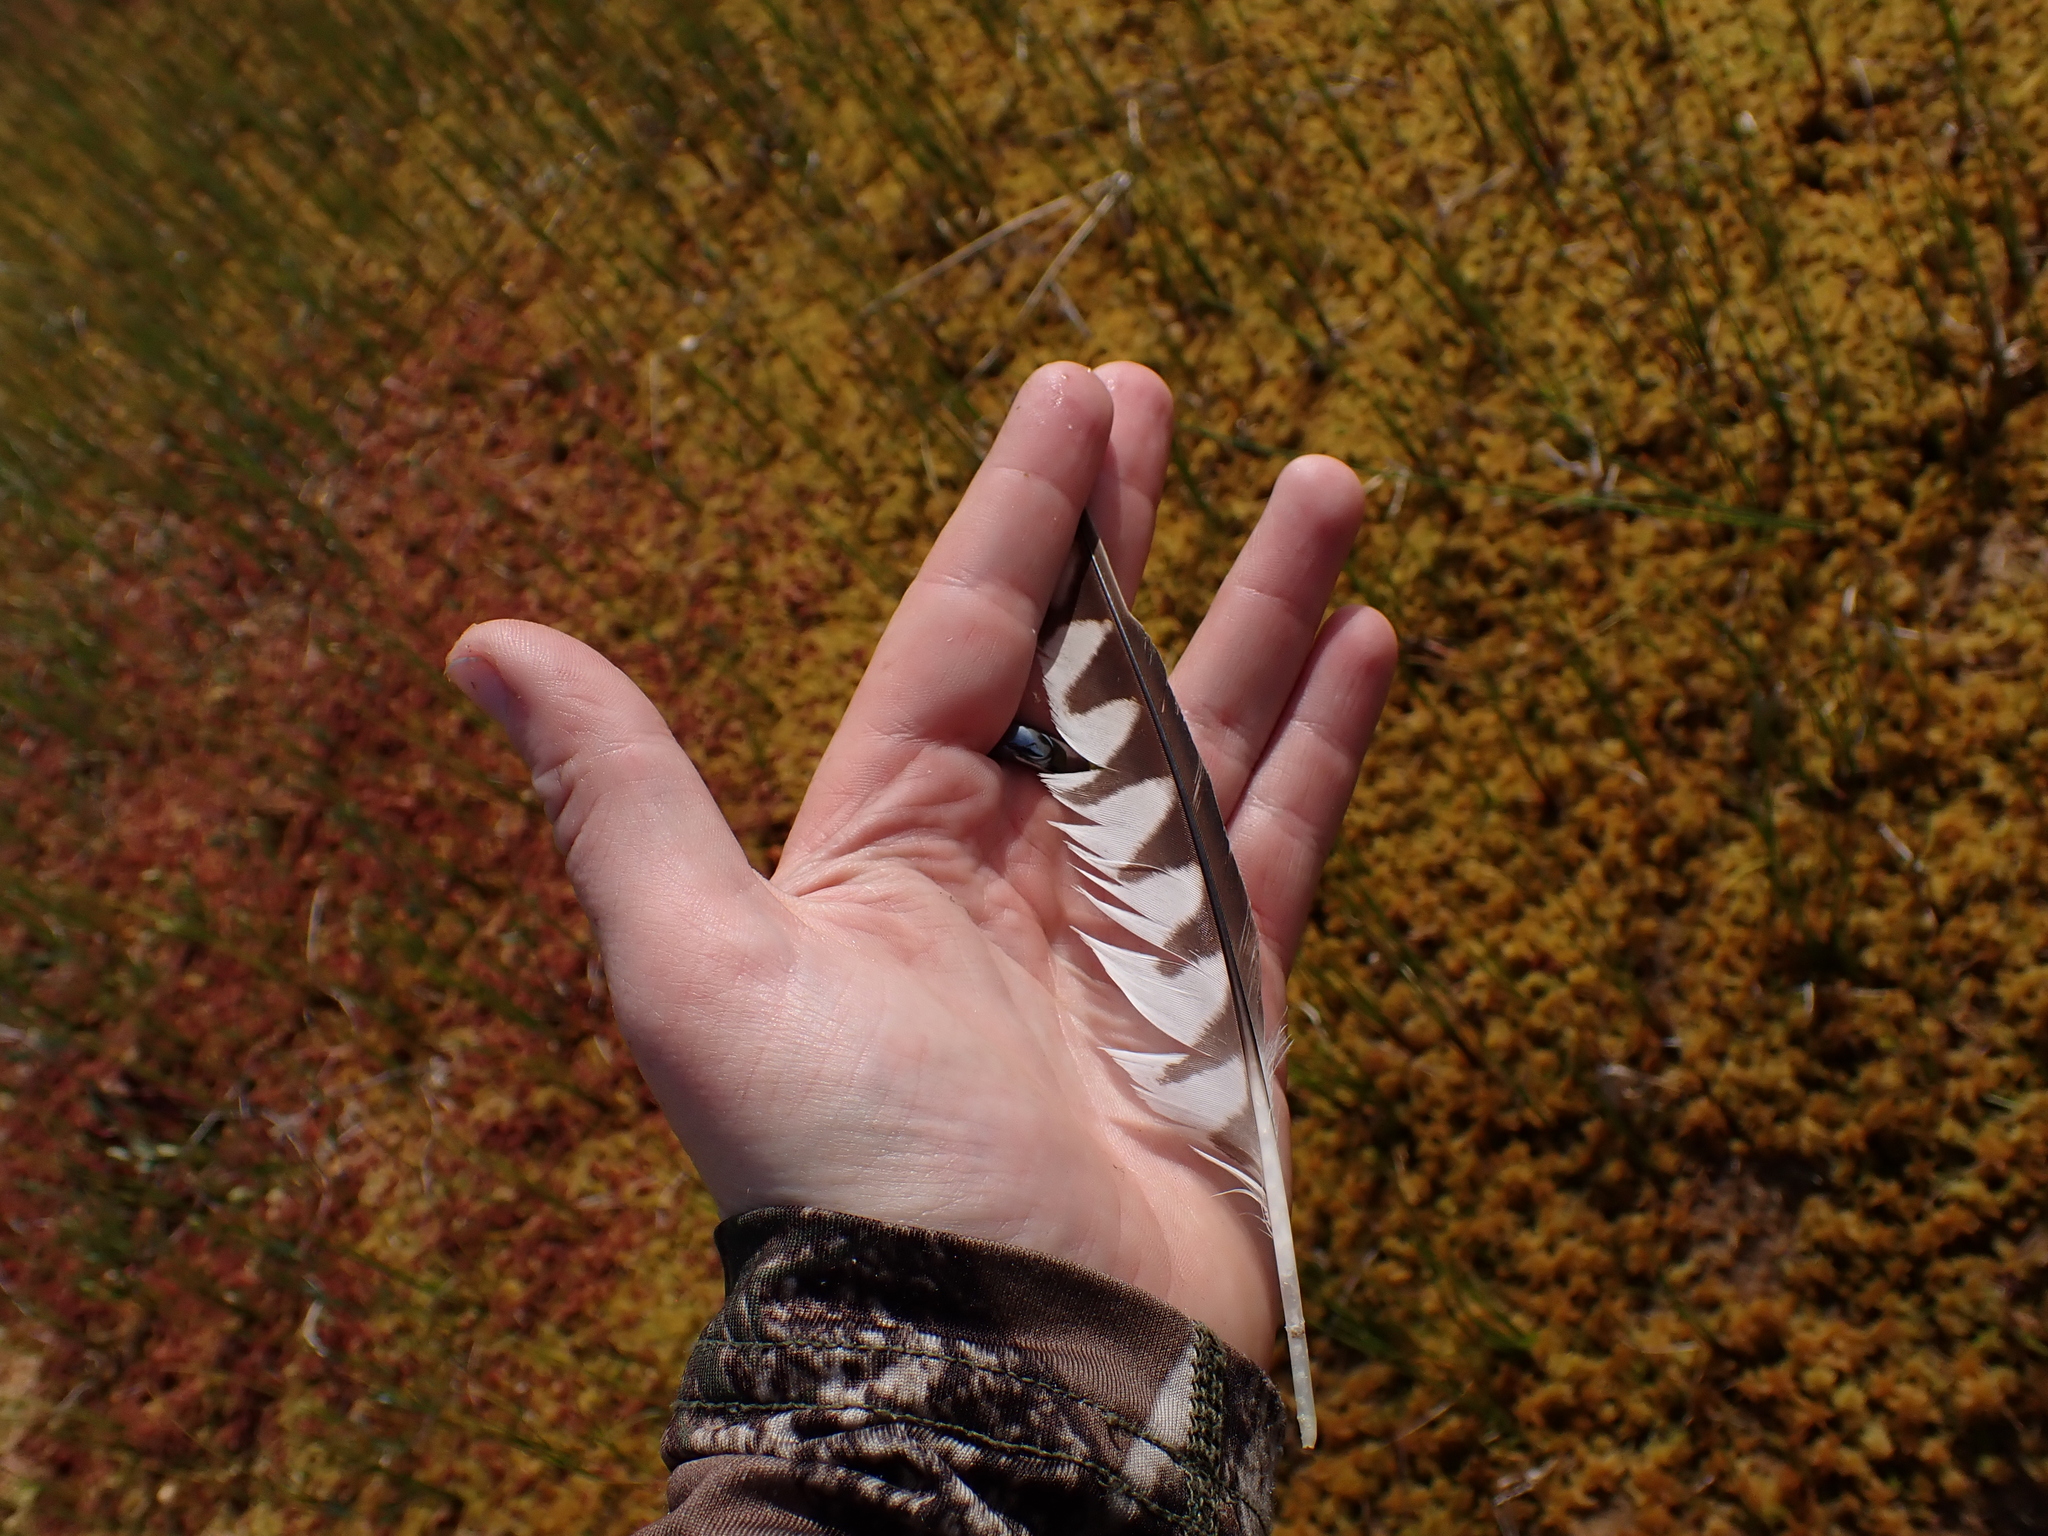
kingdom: Animalia
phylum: Chordata
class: Aves
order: Falconiformes
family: Falconidae
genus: Falco
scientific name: Falco sparverius
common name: American kestrel
